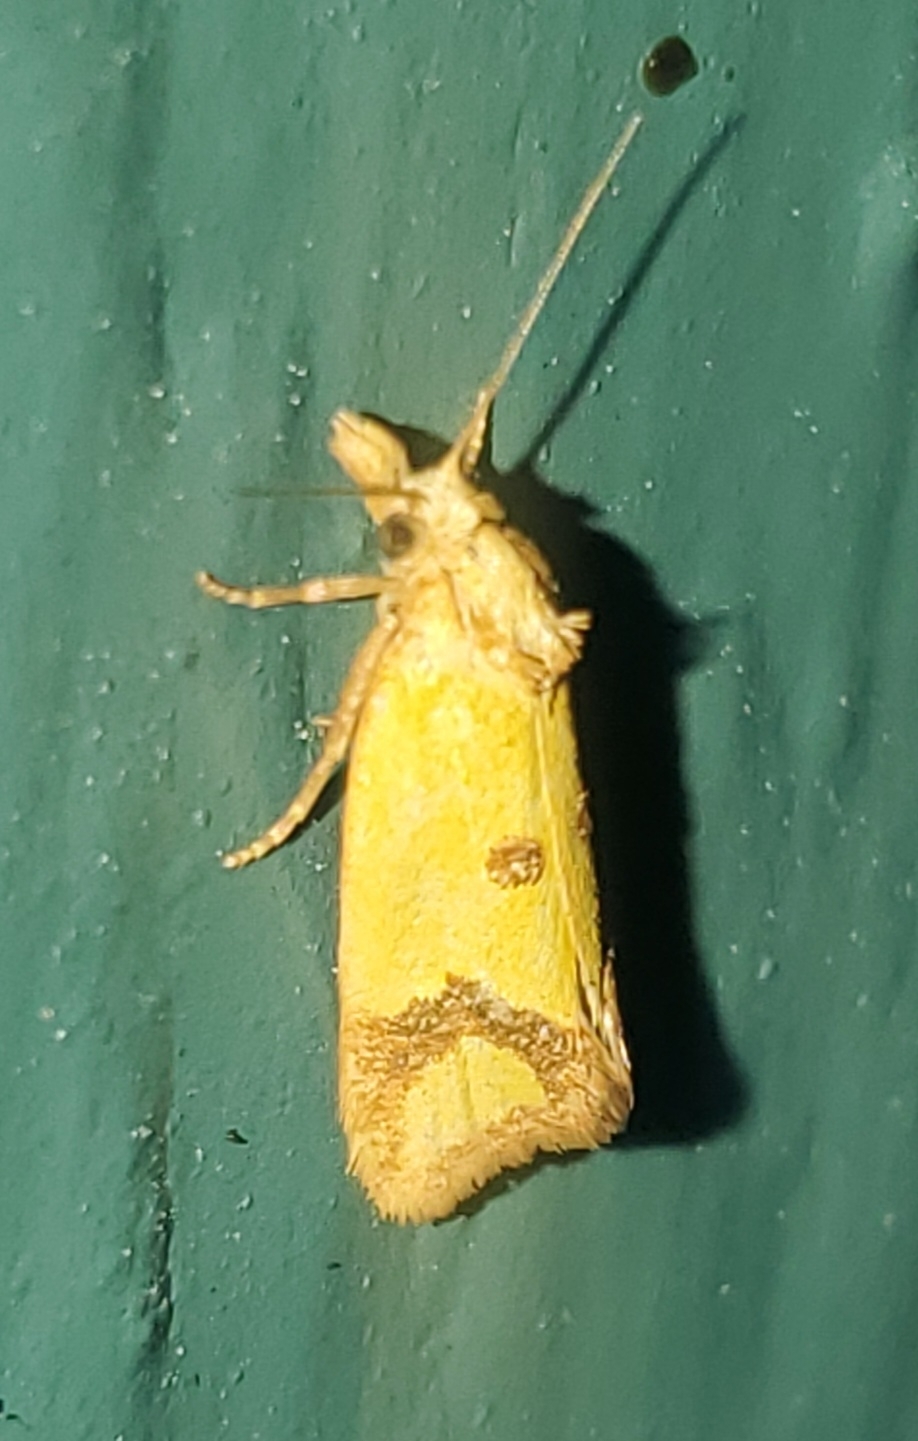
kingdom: Animalia
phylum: Arthropoda
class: Insecta
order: Lepidoptera
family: Tortricidae
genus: Agapeta
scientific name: Agapeta zoegana
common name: Sulfur knapweed root moth
